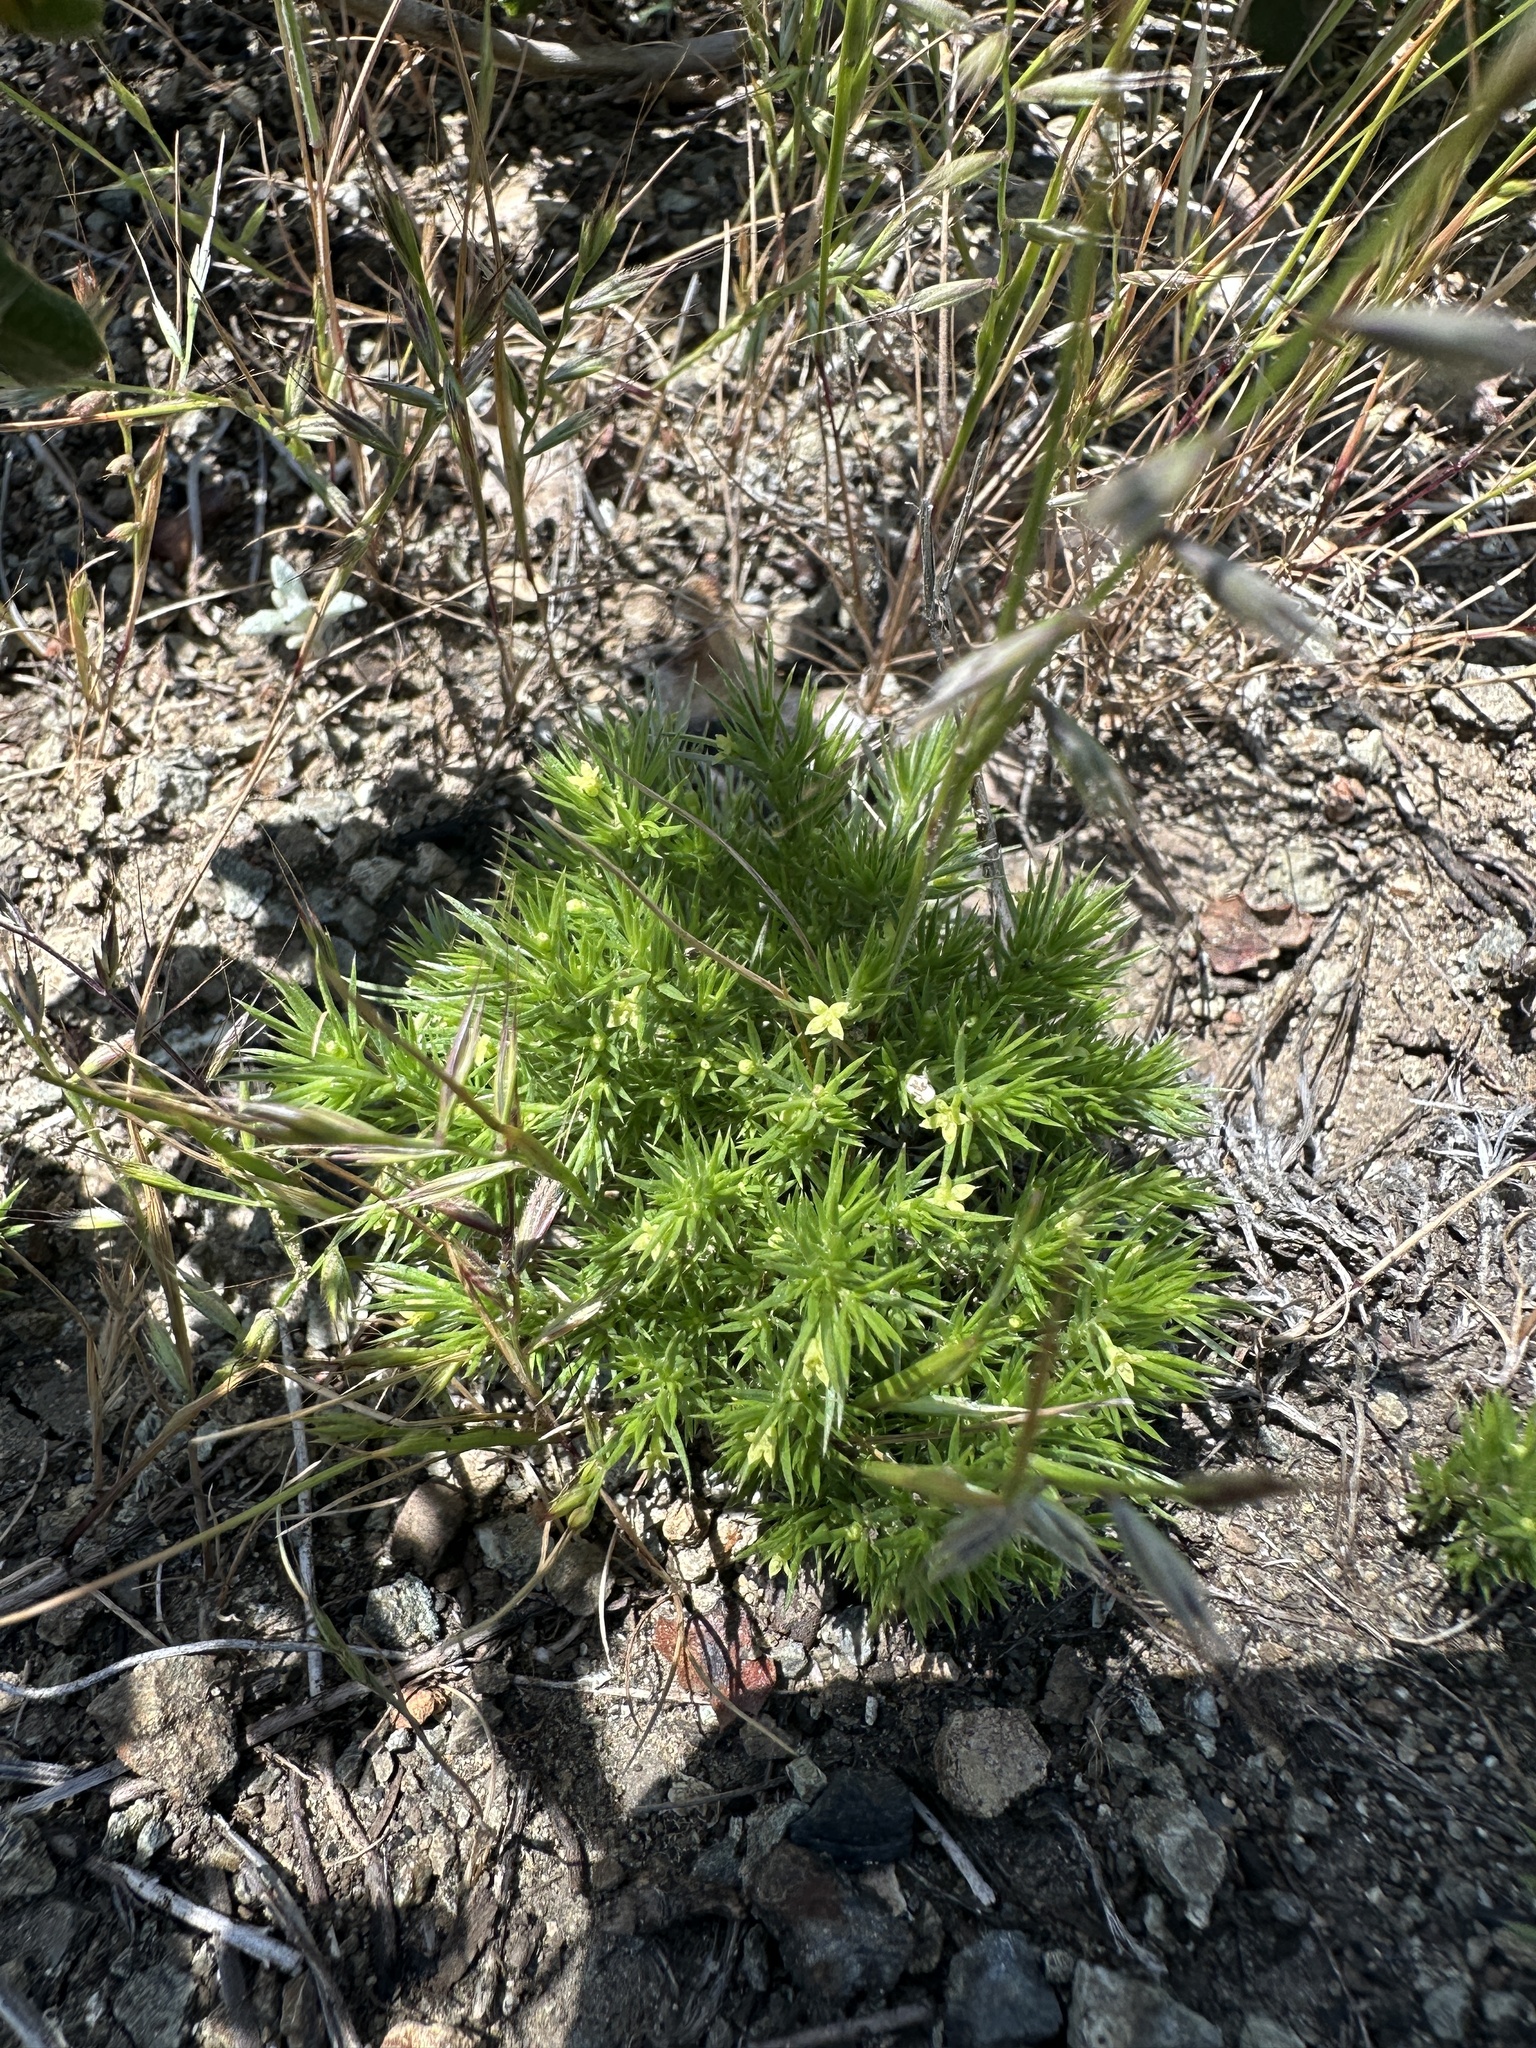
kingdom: Plantae
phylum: Tracheophyta
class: Magnoliopsida
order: Gentianales
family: Rubiaceae
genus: Galium
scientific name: Galium andrewsii
